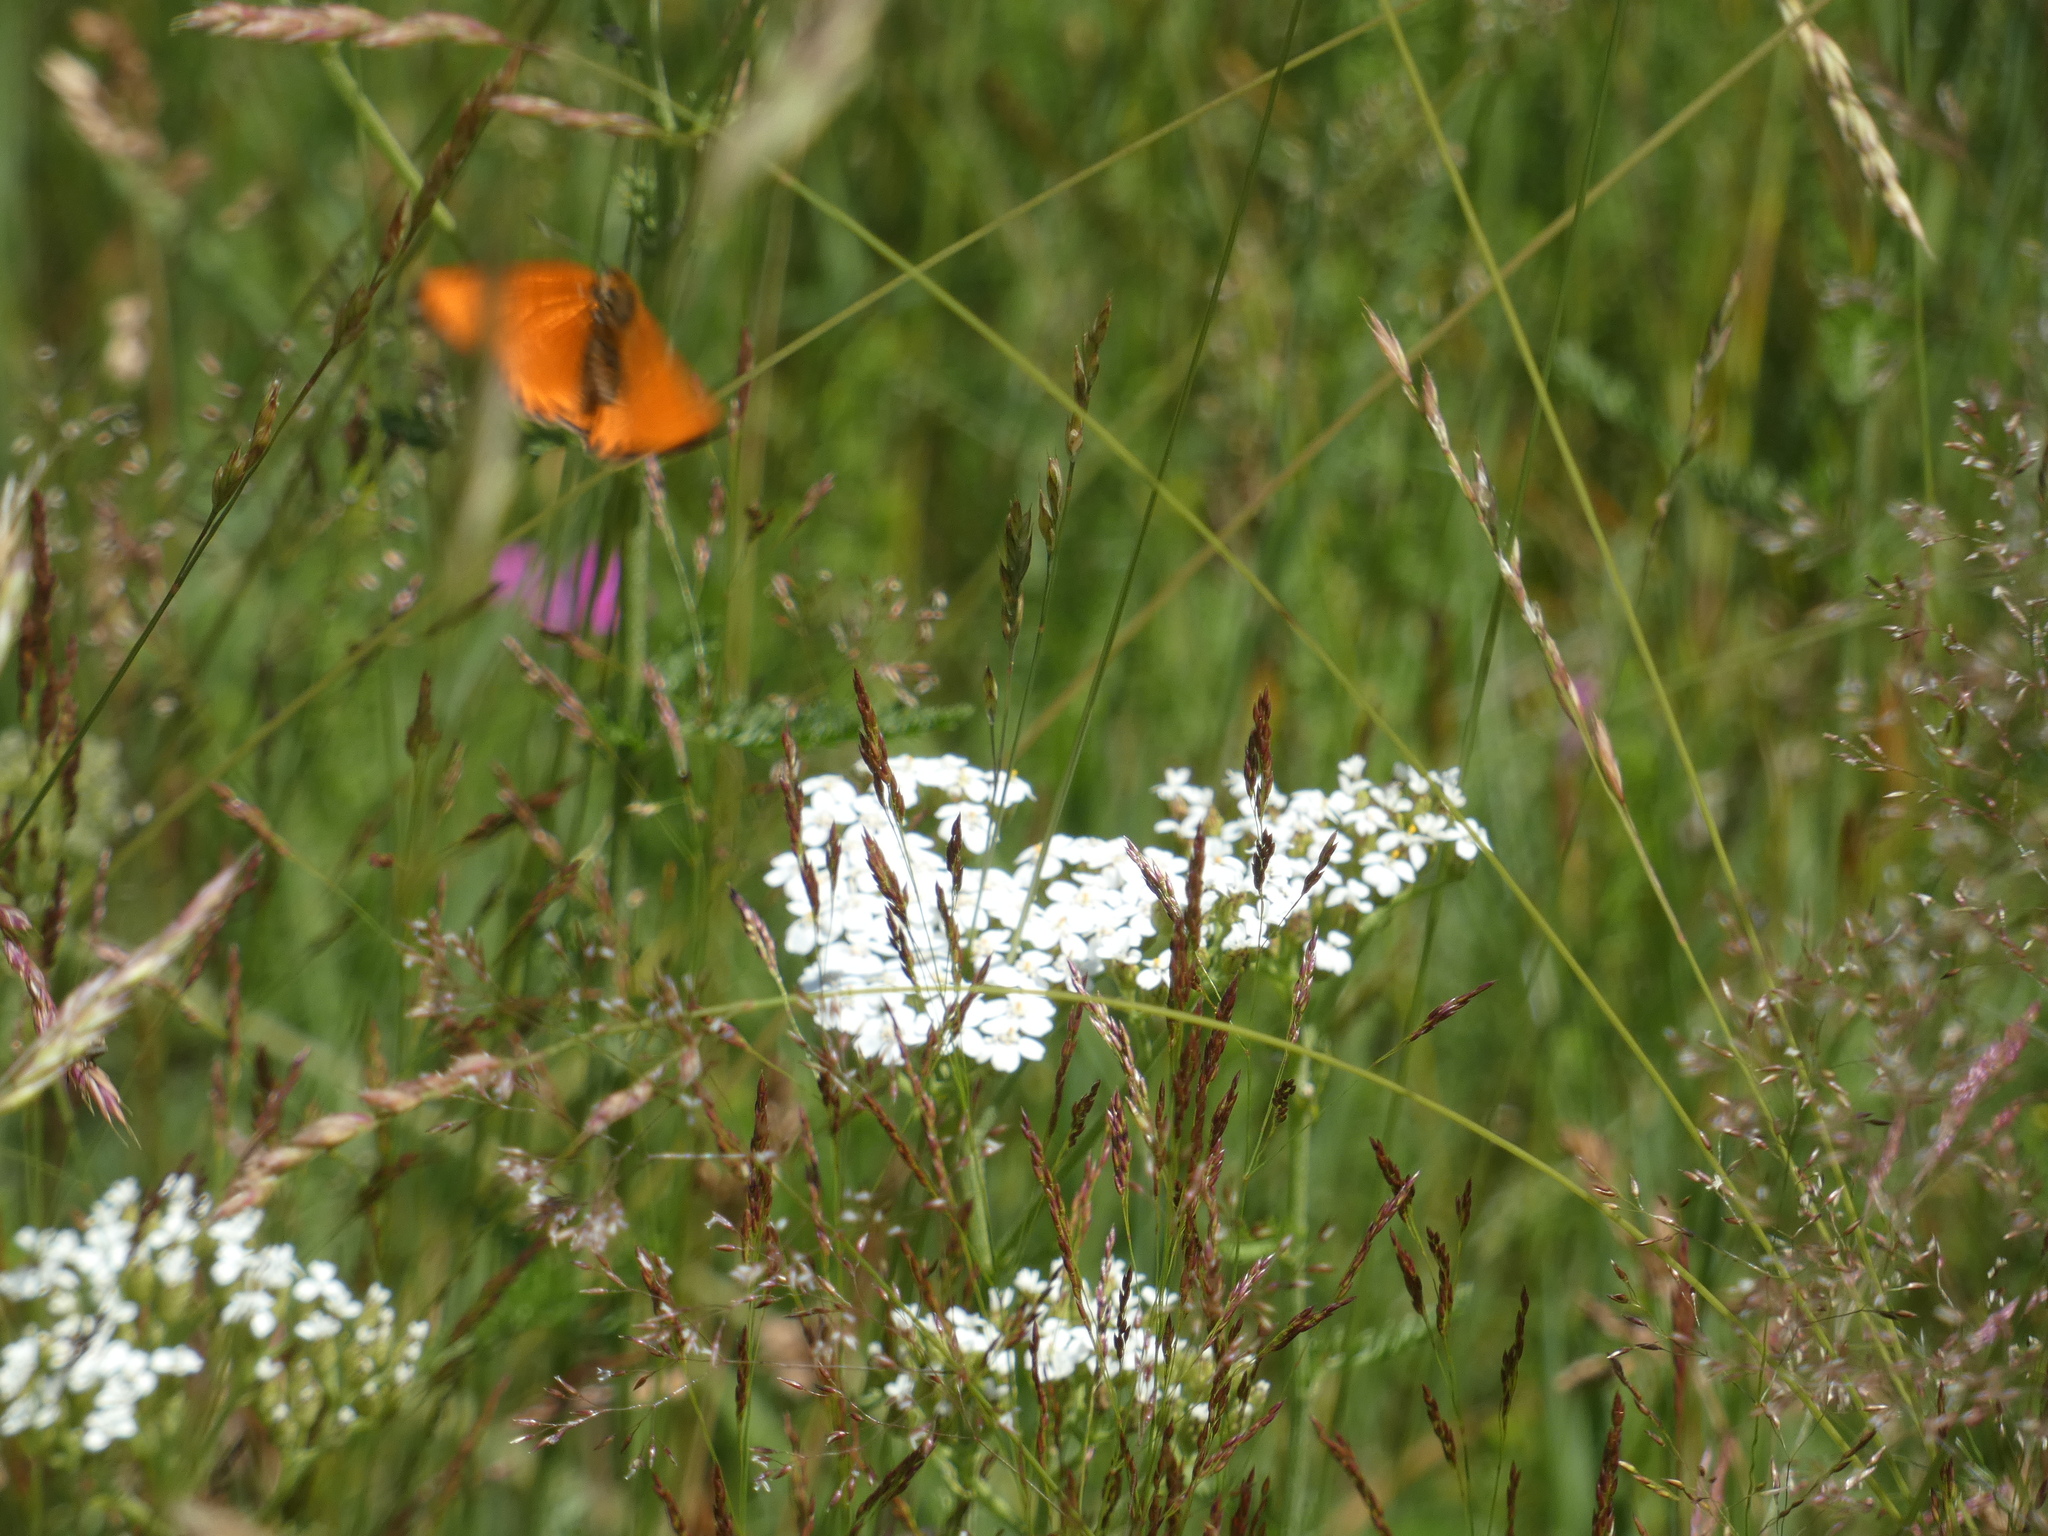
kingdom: Animalia
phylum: Arthropoda
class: Insecta
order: Lepidoptera
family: Lycaenidae
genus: Lycaena
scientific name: Lycaena virgaureae
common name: Scarce copper
